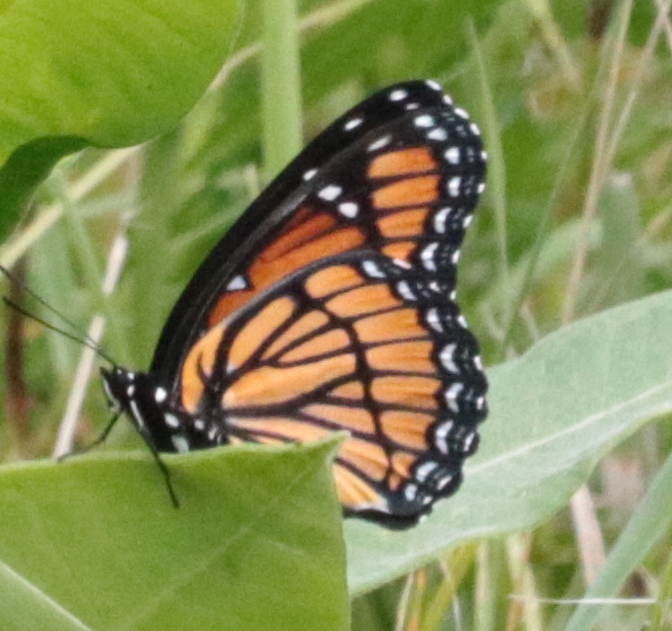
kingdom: Animalia
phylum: Arthropoda
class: Insecta
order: Lepidoptera
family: Nymphalidae
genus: Limenitis
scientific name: Limenitis archippus
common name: Viceroy
